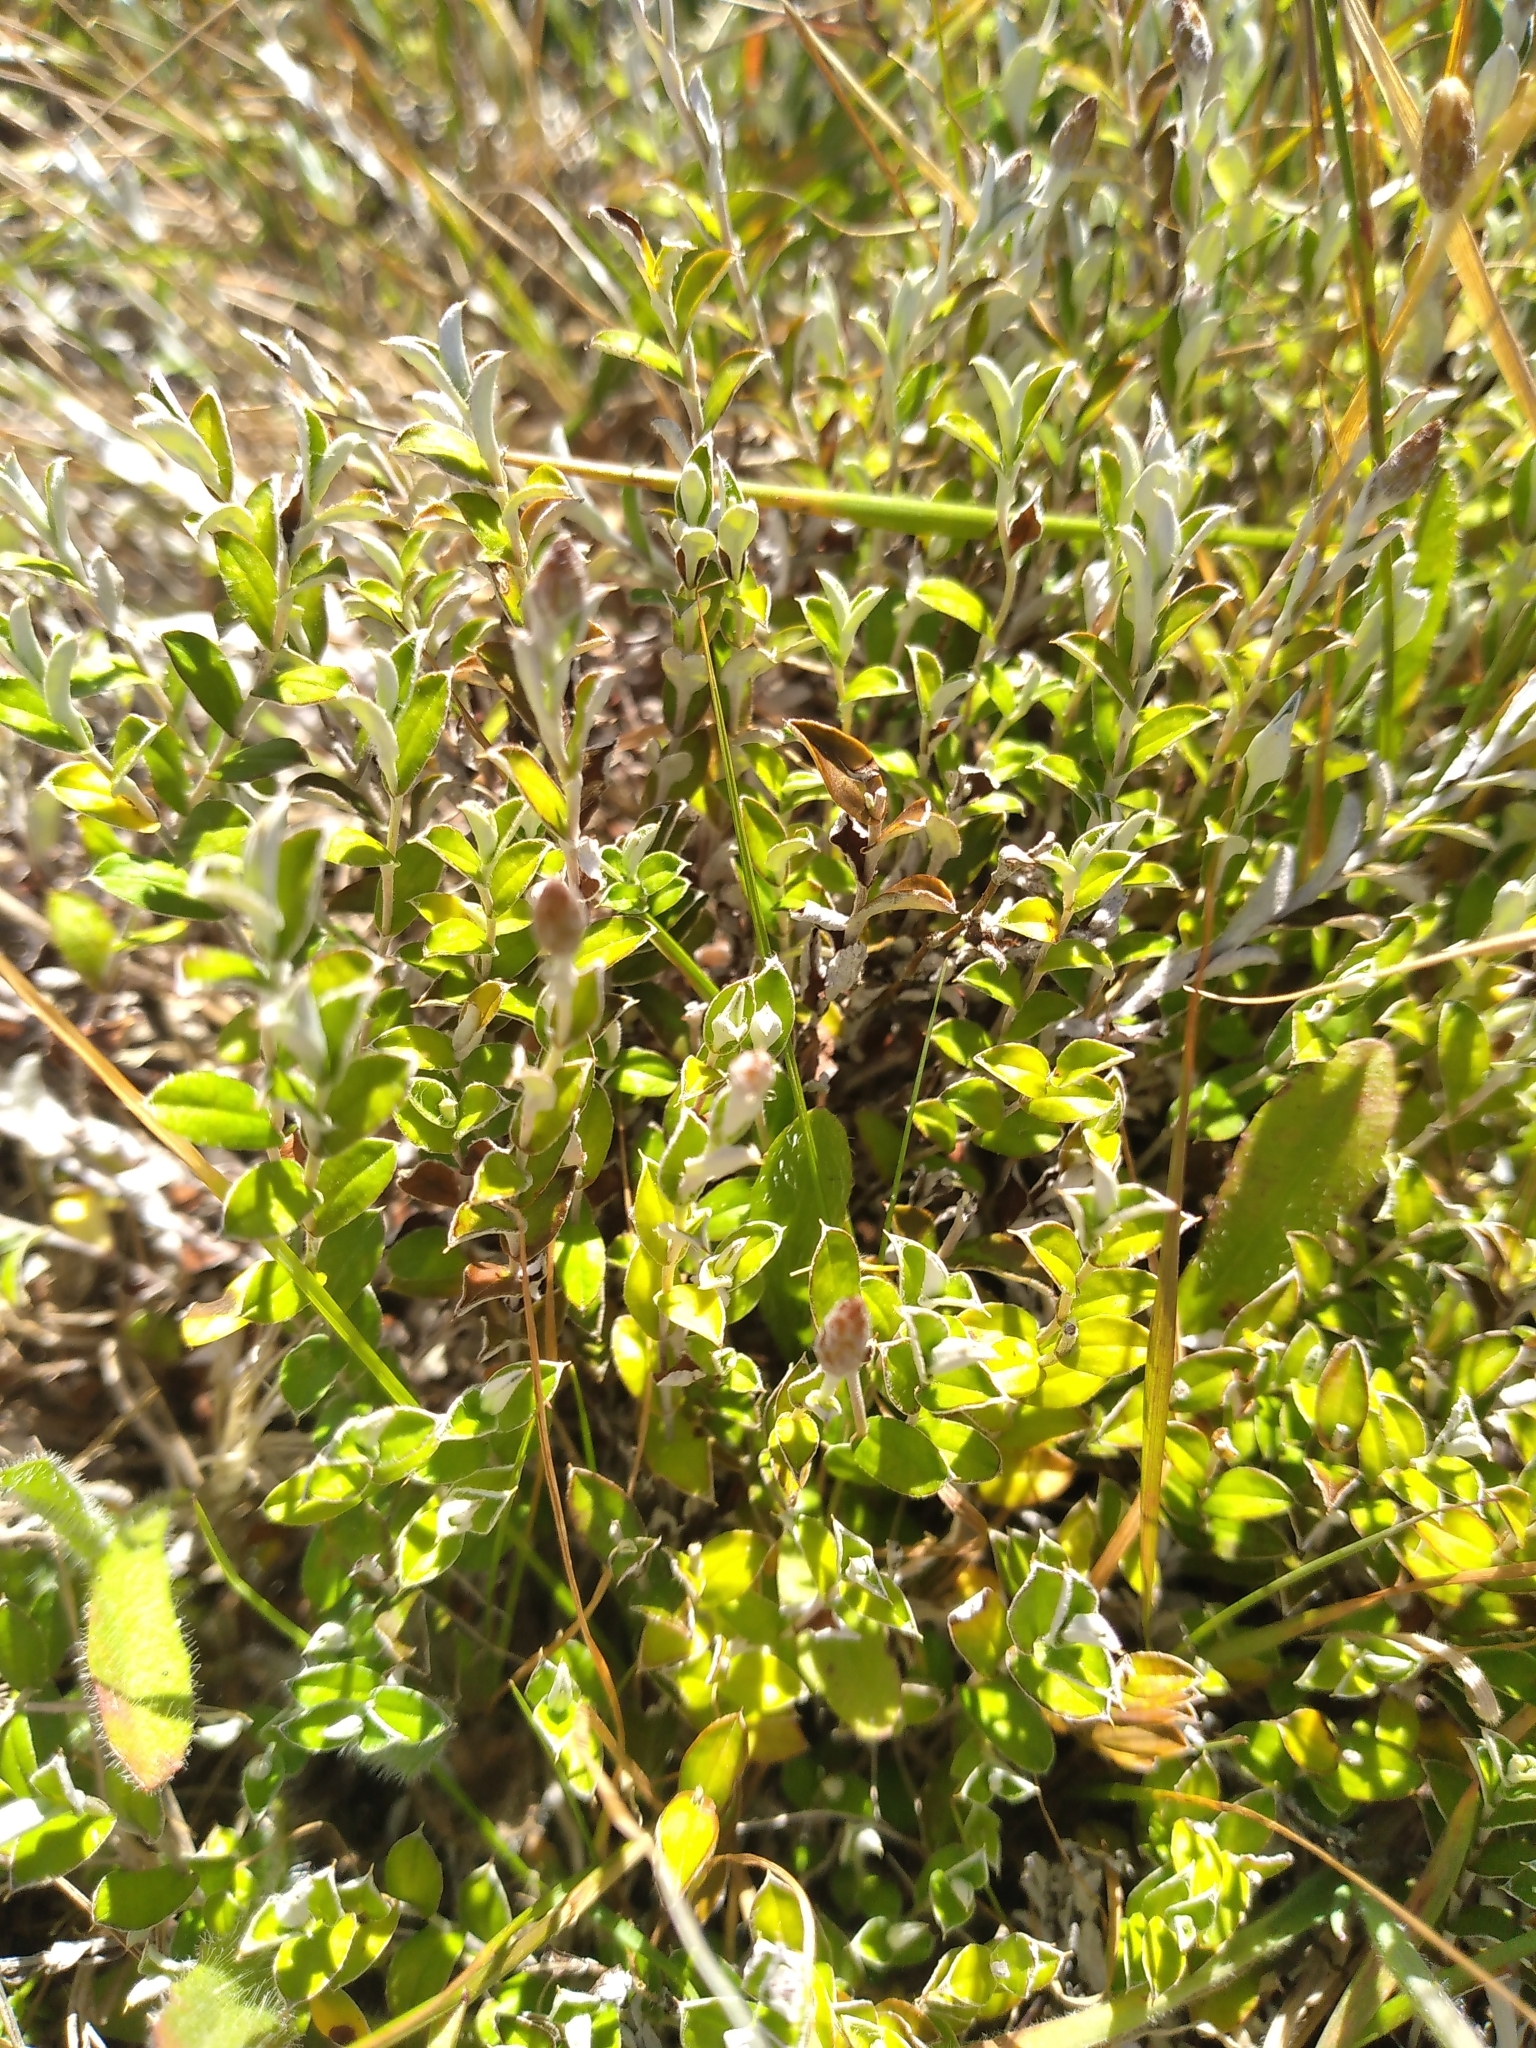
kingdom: Plantae
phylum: Tracheophyta
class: Magnoliopsida
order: Asterales
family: Asteraceae
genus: Helichrysum
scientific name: Helichrysum filicaule
